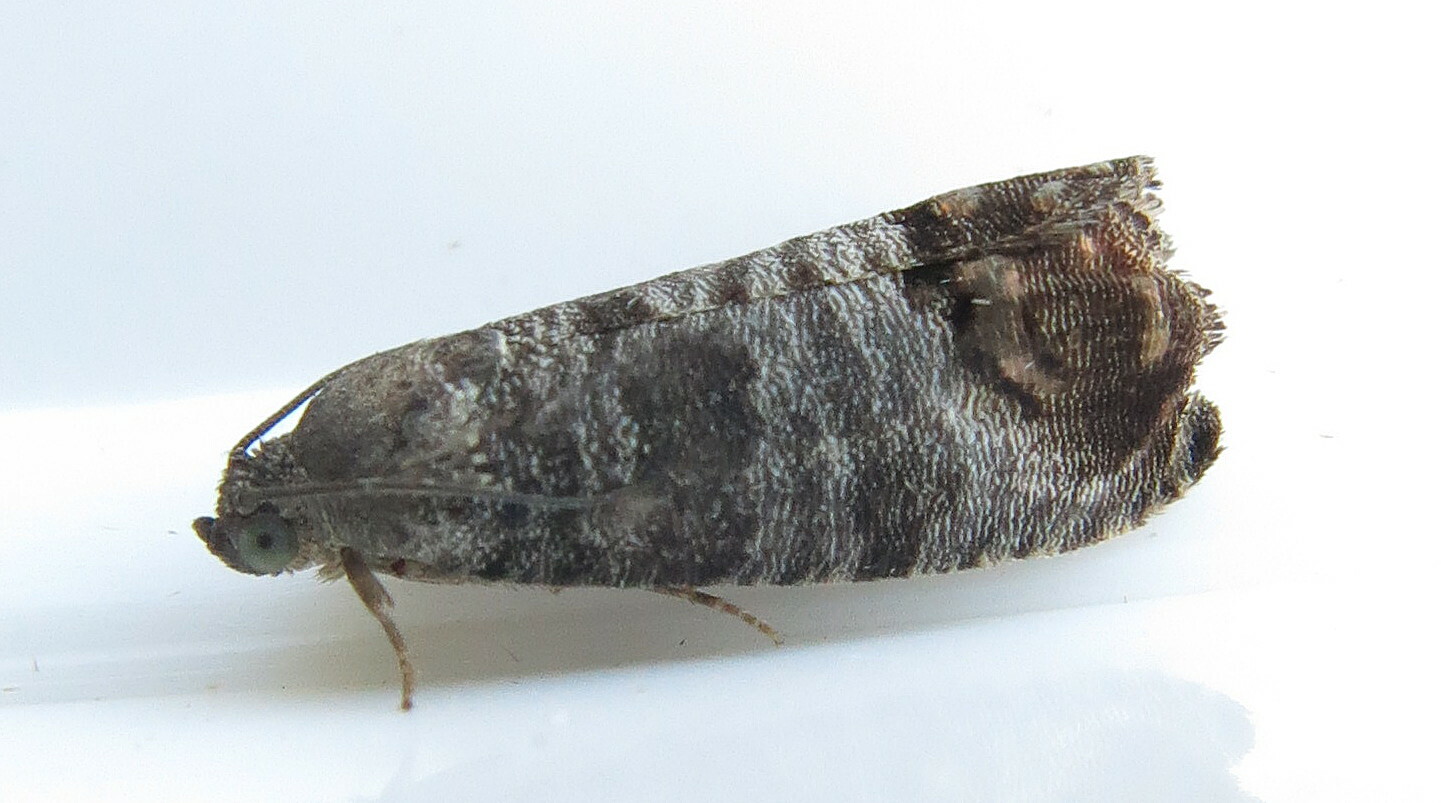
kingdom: Animalia
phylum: Arthropoda
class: Insecta
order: Lepidoptera
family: Tortricidae
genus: Cydia
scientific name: Cydia pomonella
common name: Codling moth
